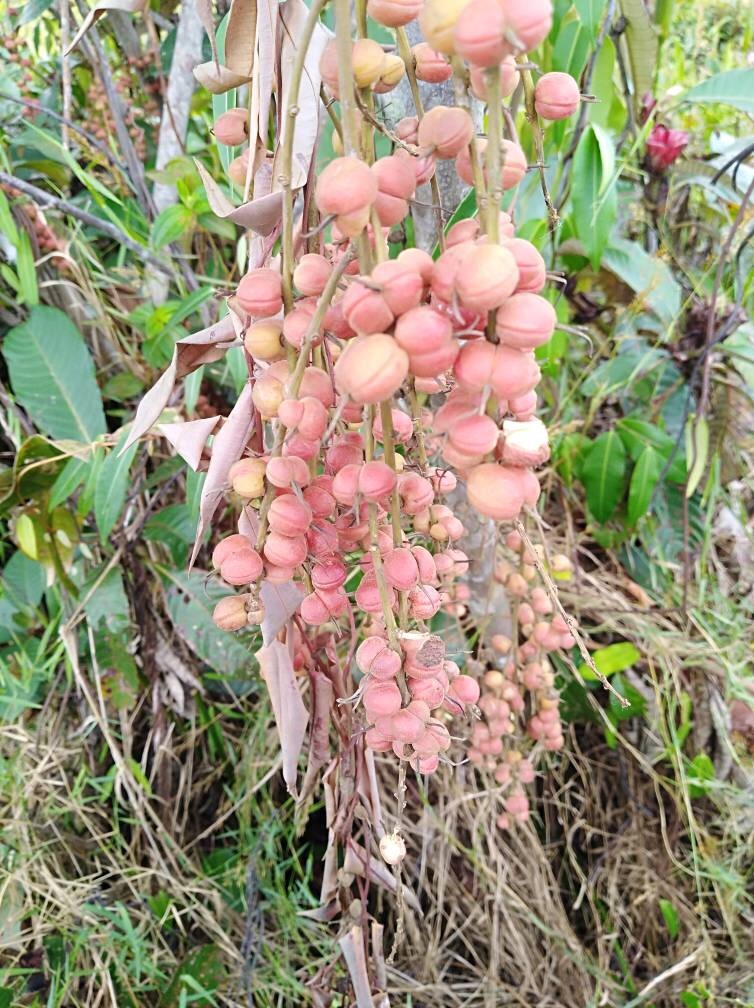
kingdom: Plantae
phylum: Tracheophyta
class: Magnoliopsida
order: Malpighiales
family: Euphorbiaceae
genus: Alchornea
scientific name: Alchornea cordifolia
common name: Christmasbush
